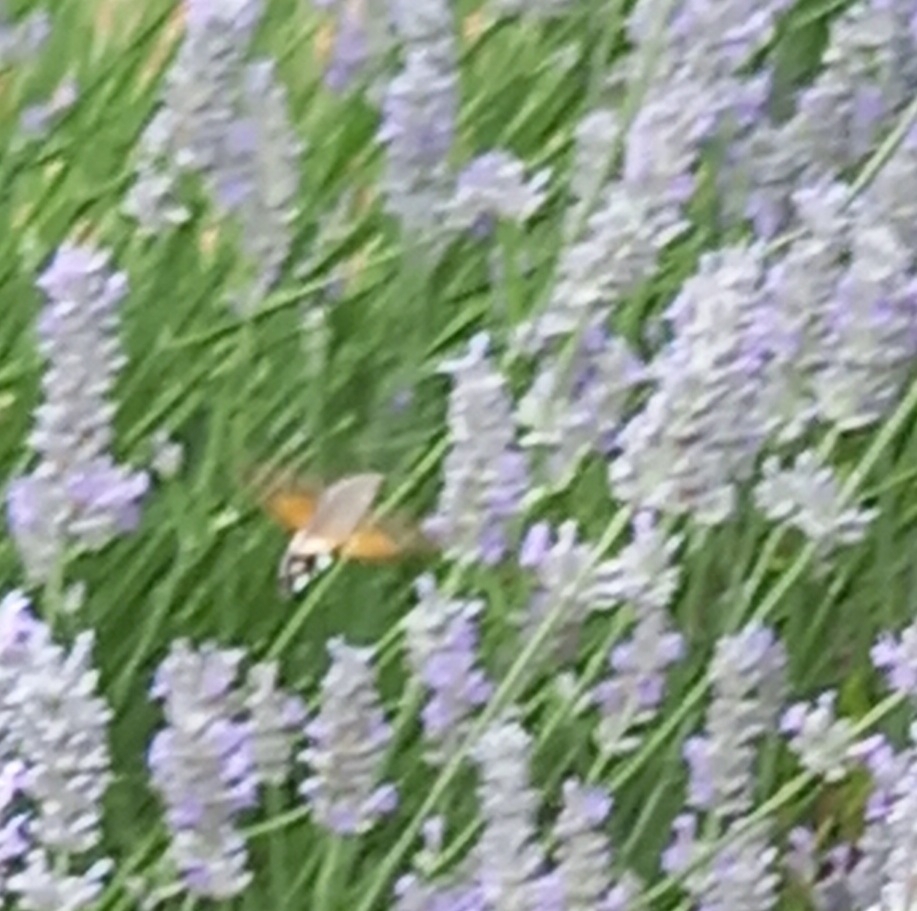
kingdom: Animalia
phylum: Arthropoda
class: Insecta
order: Lepidoptera
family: Sphingidae
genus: Macroglossum
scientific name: Macroglossum stellatarum
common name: Humming-bird hawk-moth
